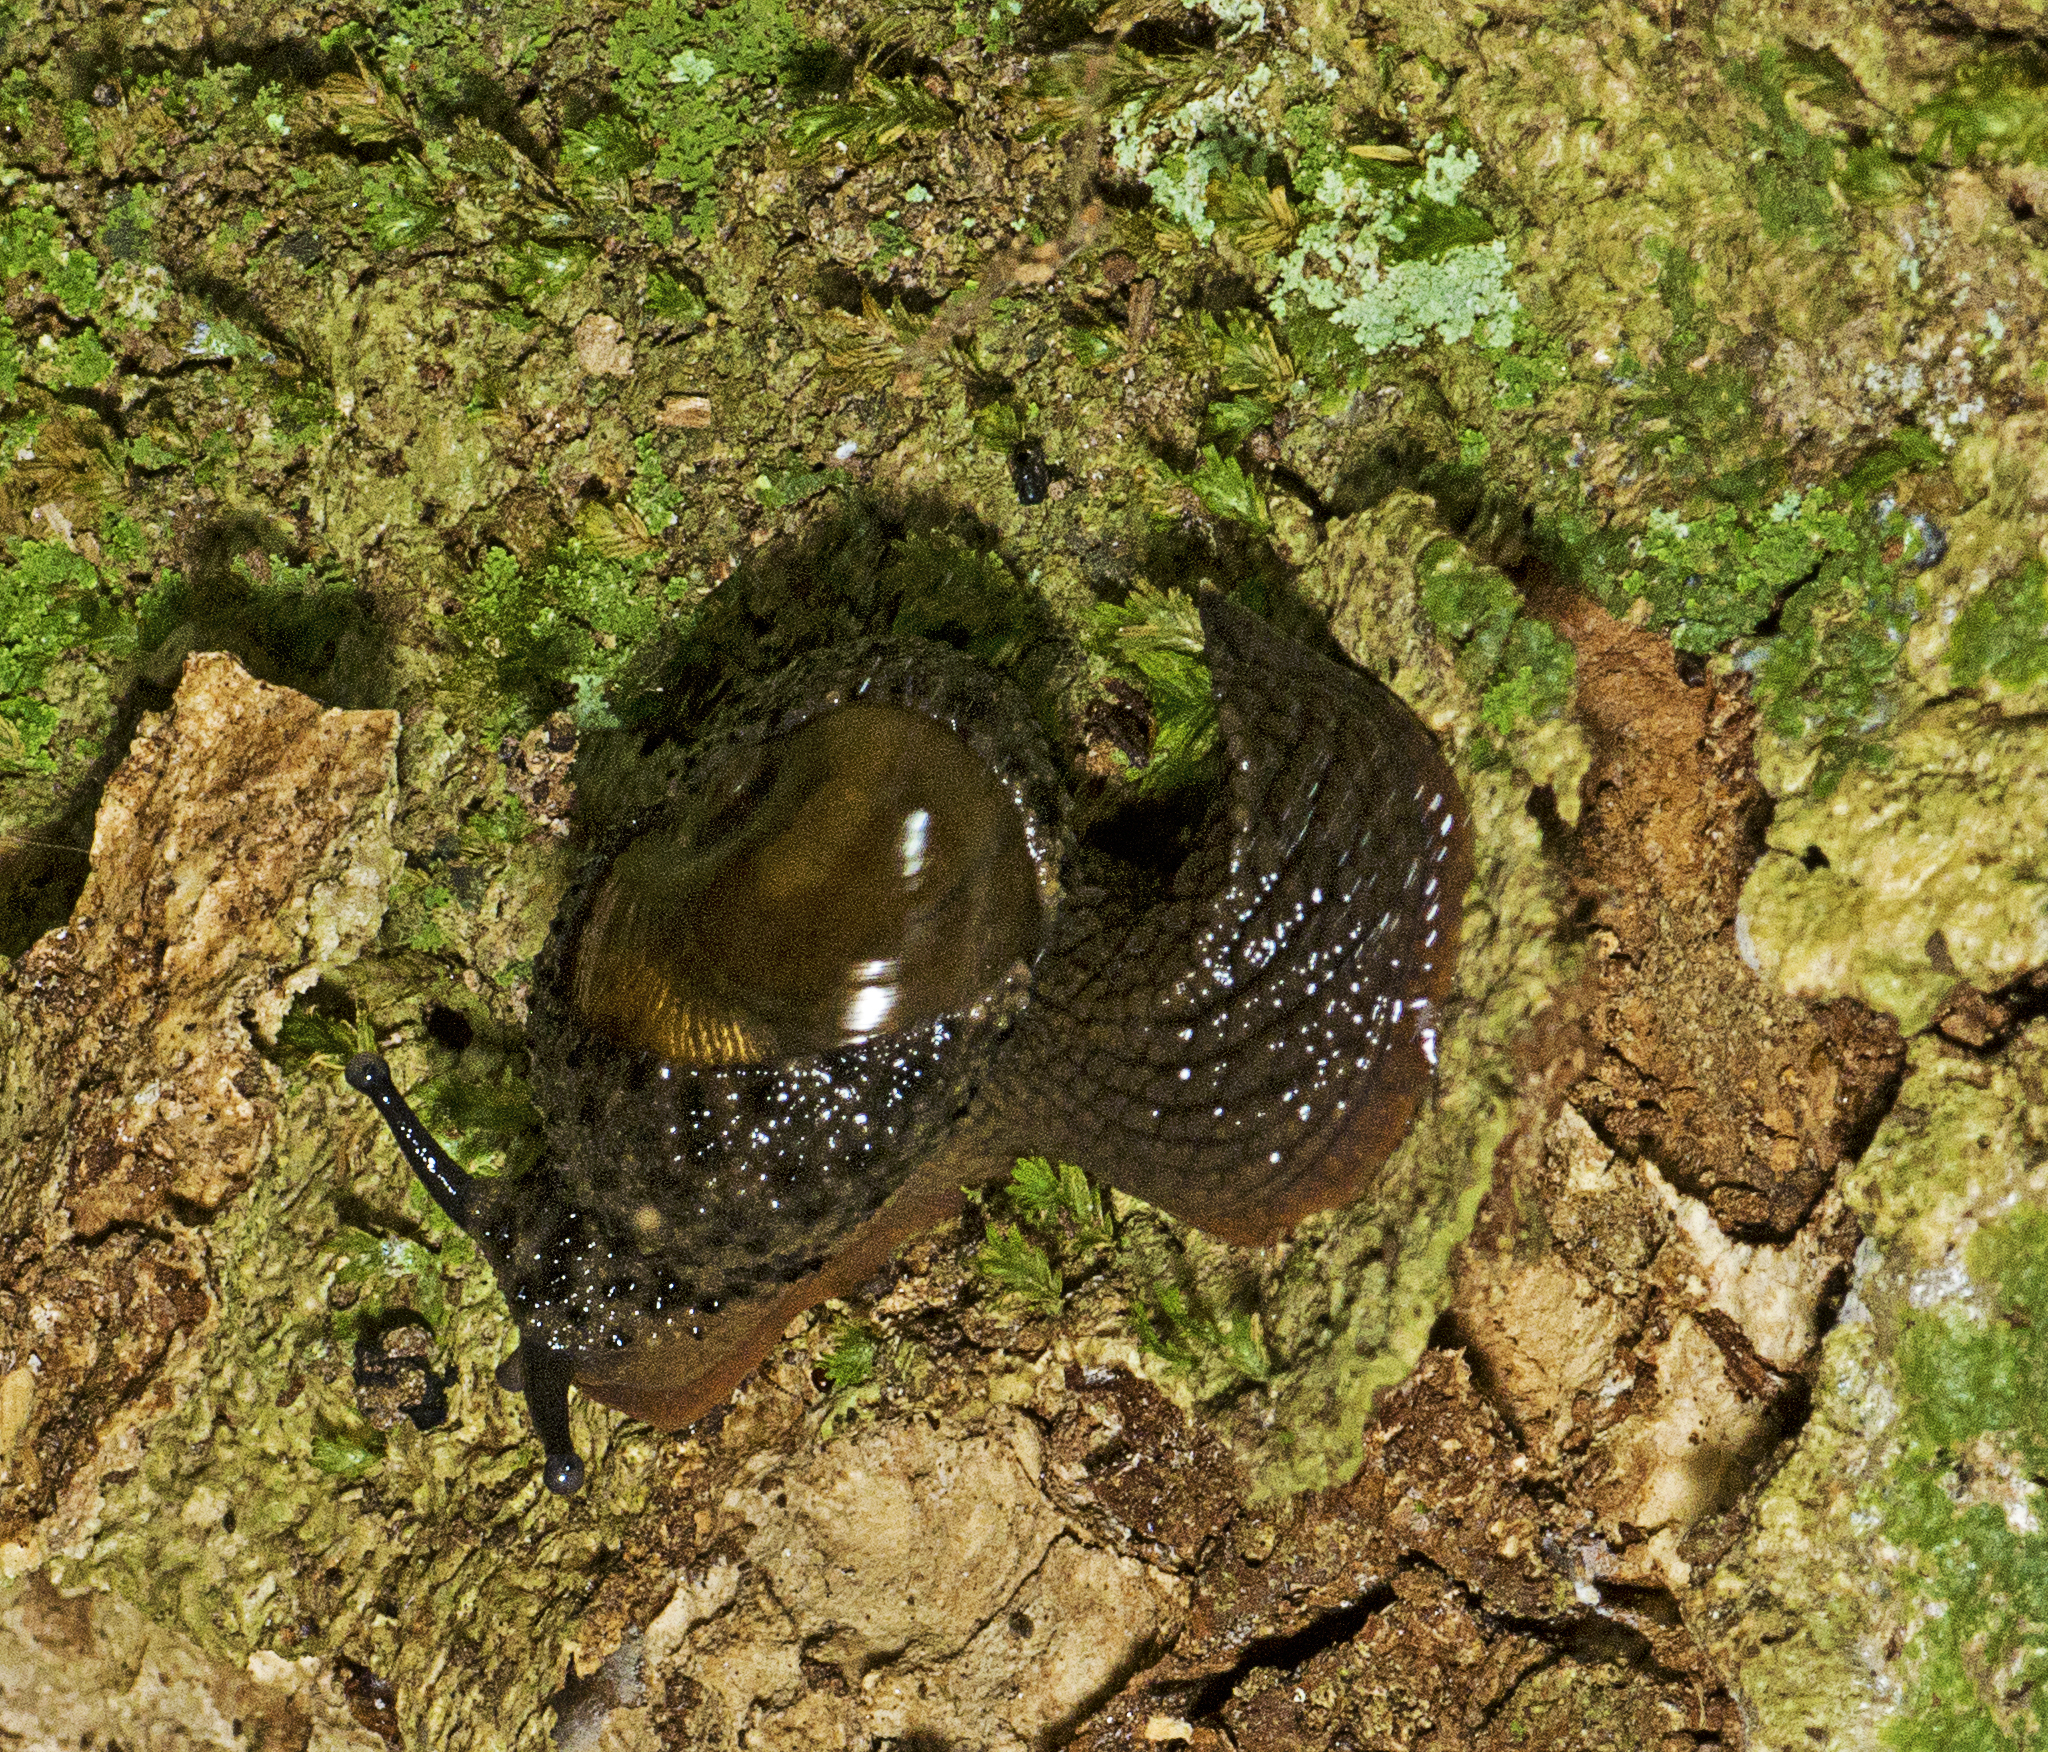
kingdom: Animalia
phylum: Mollusca
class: Gastropoda
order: Stylommatophora
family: Helicarionidae
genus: Stanisicarion
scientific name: Stanisicarion aquila
